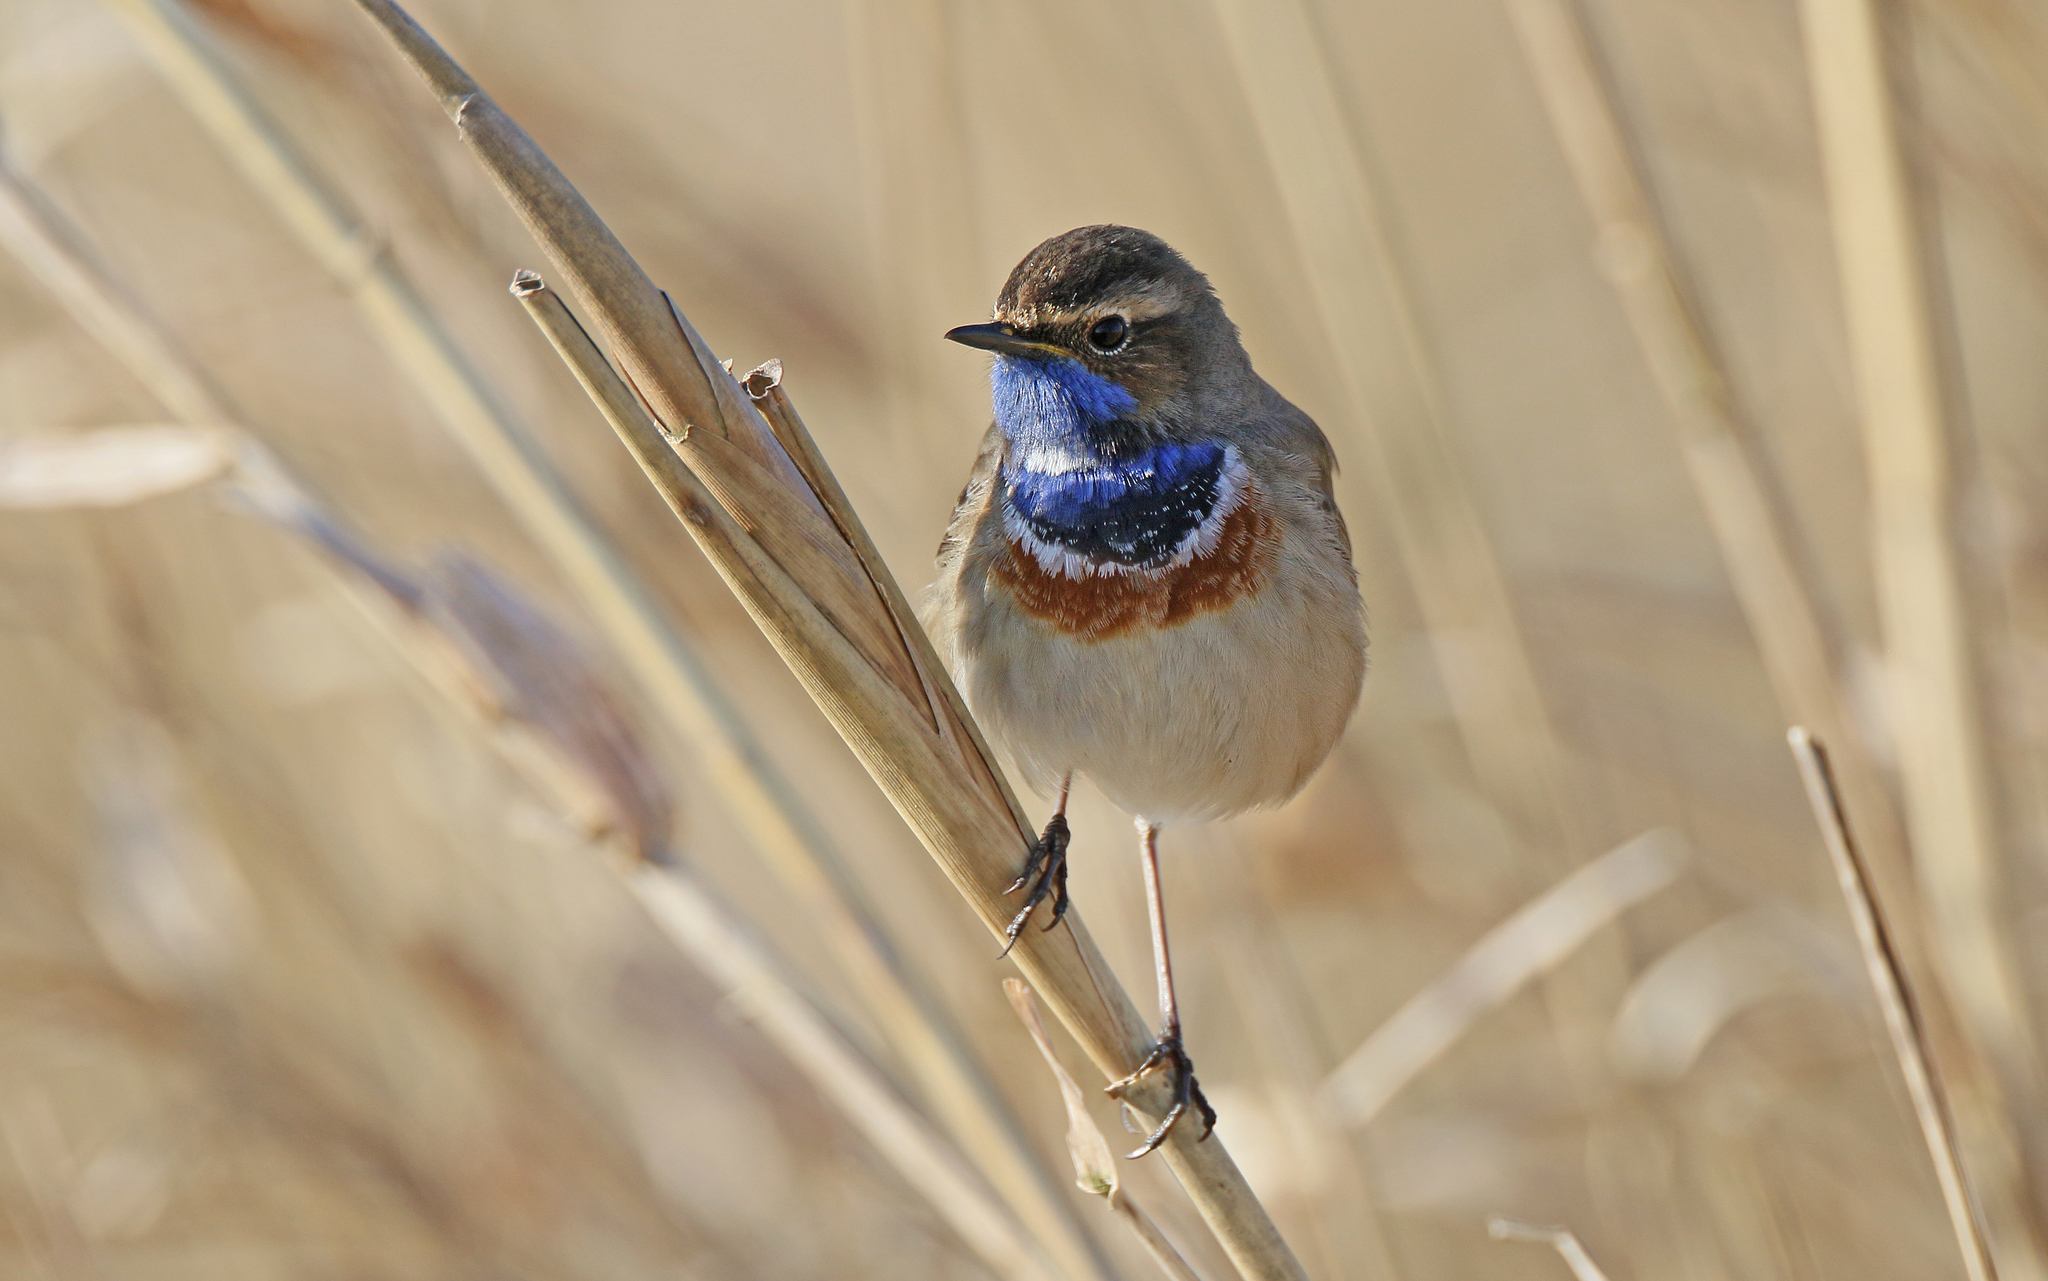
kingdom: Animalia
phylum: Chordata
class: Aves
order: Passeriformes
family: Muscicapidae
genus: Luscinia
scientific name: Luscinia svecica
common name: Bluethroat
